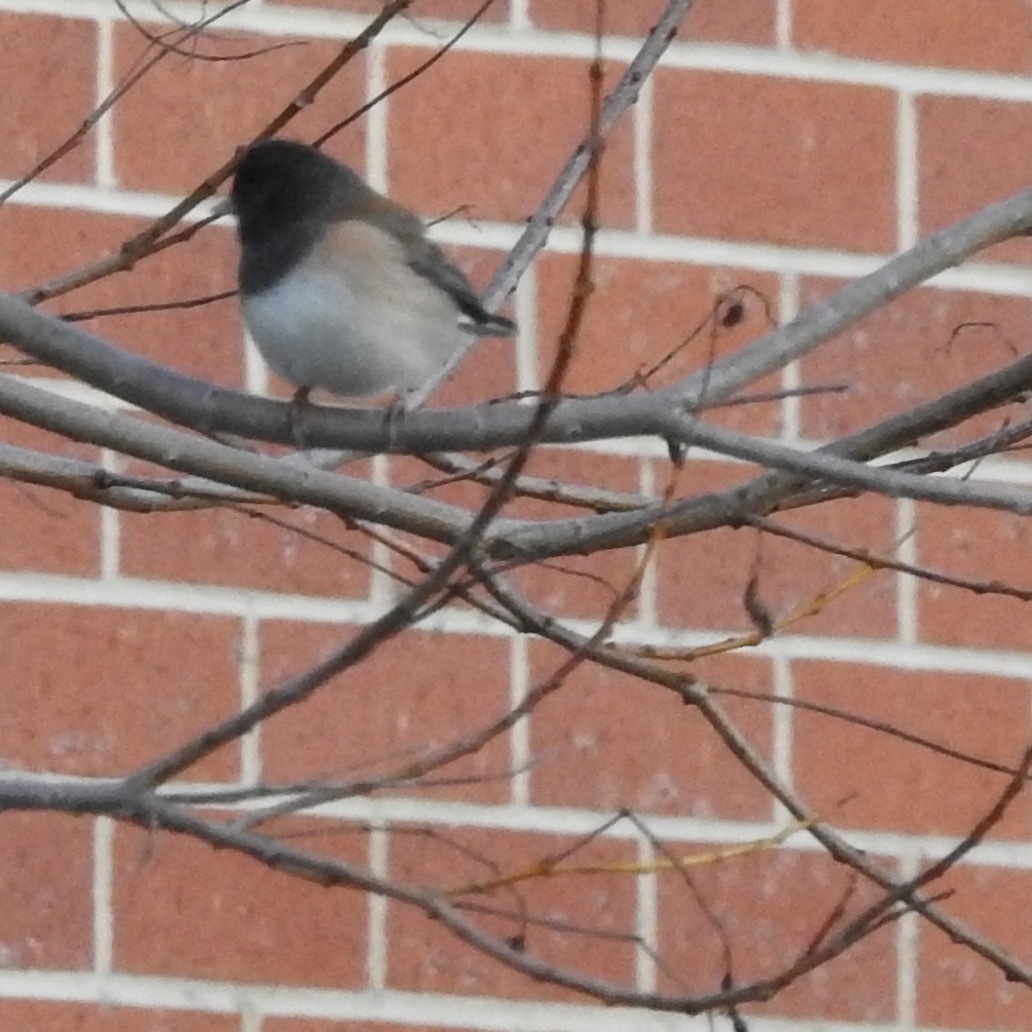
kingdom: Animalia
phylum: Chordata
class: Aves
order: Passeriformes
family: Passerellidae
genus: Junco
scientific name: Junco hyemalis
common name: Dark-eyed junco
